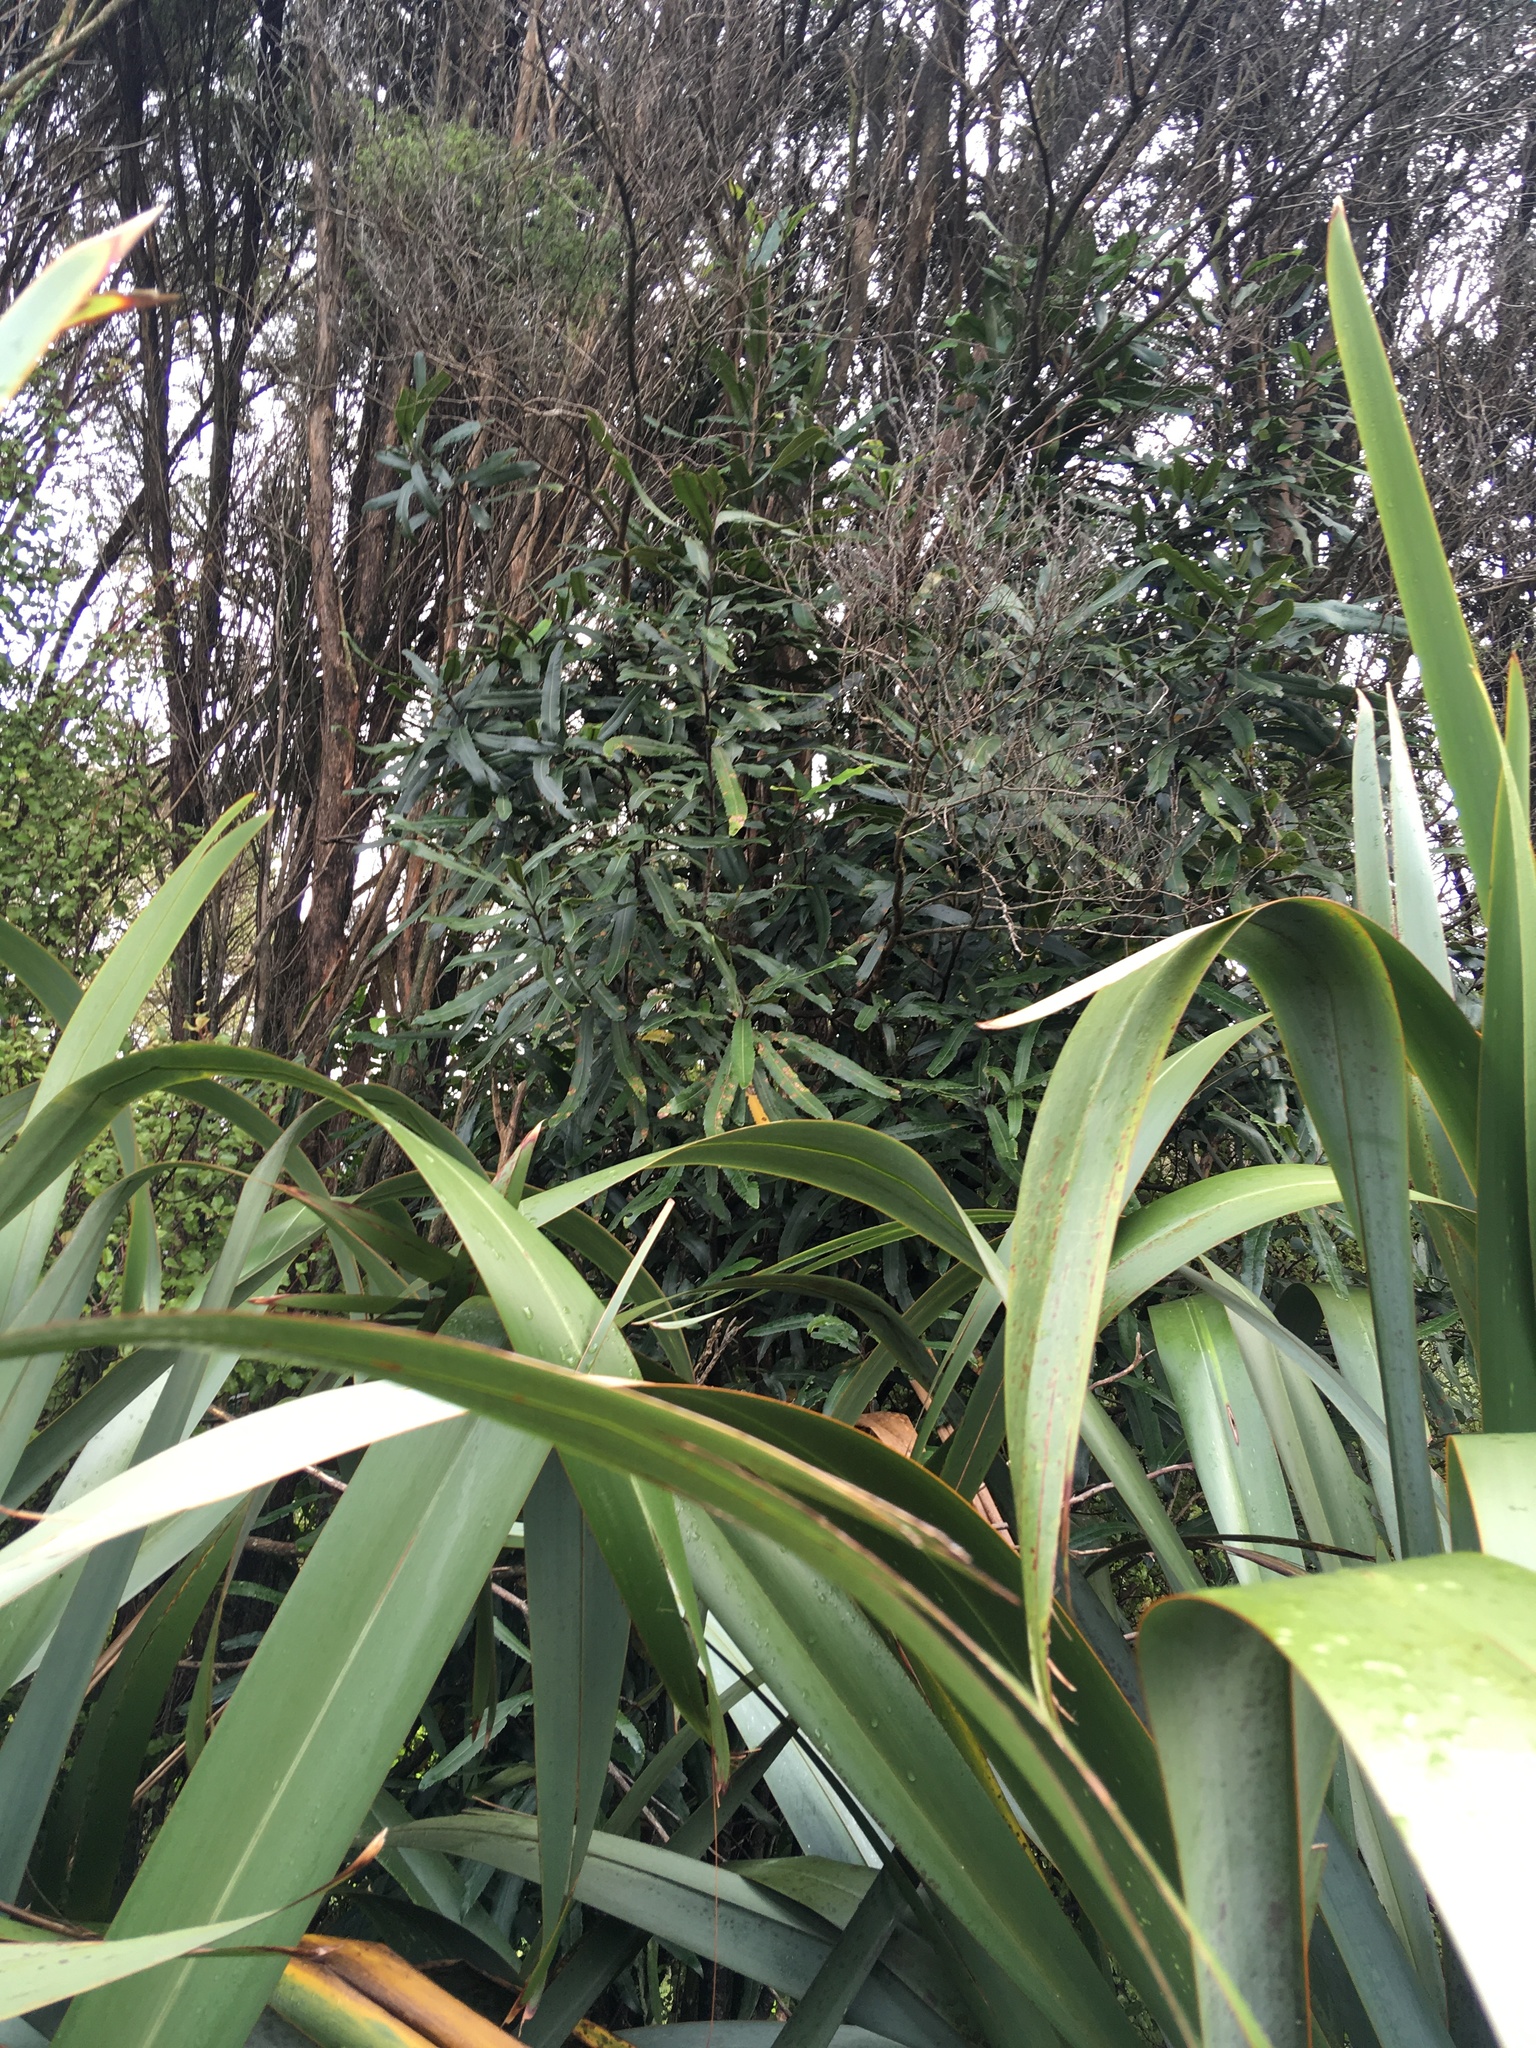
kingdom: Plantae
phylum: Tracheophyta
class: Magnoliopsida
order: Proteales
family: Proteaceae
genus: Knightia
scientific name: Knightia excelsa
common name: New zealand-honeysuckle
